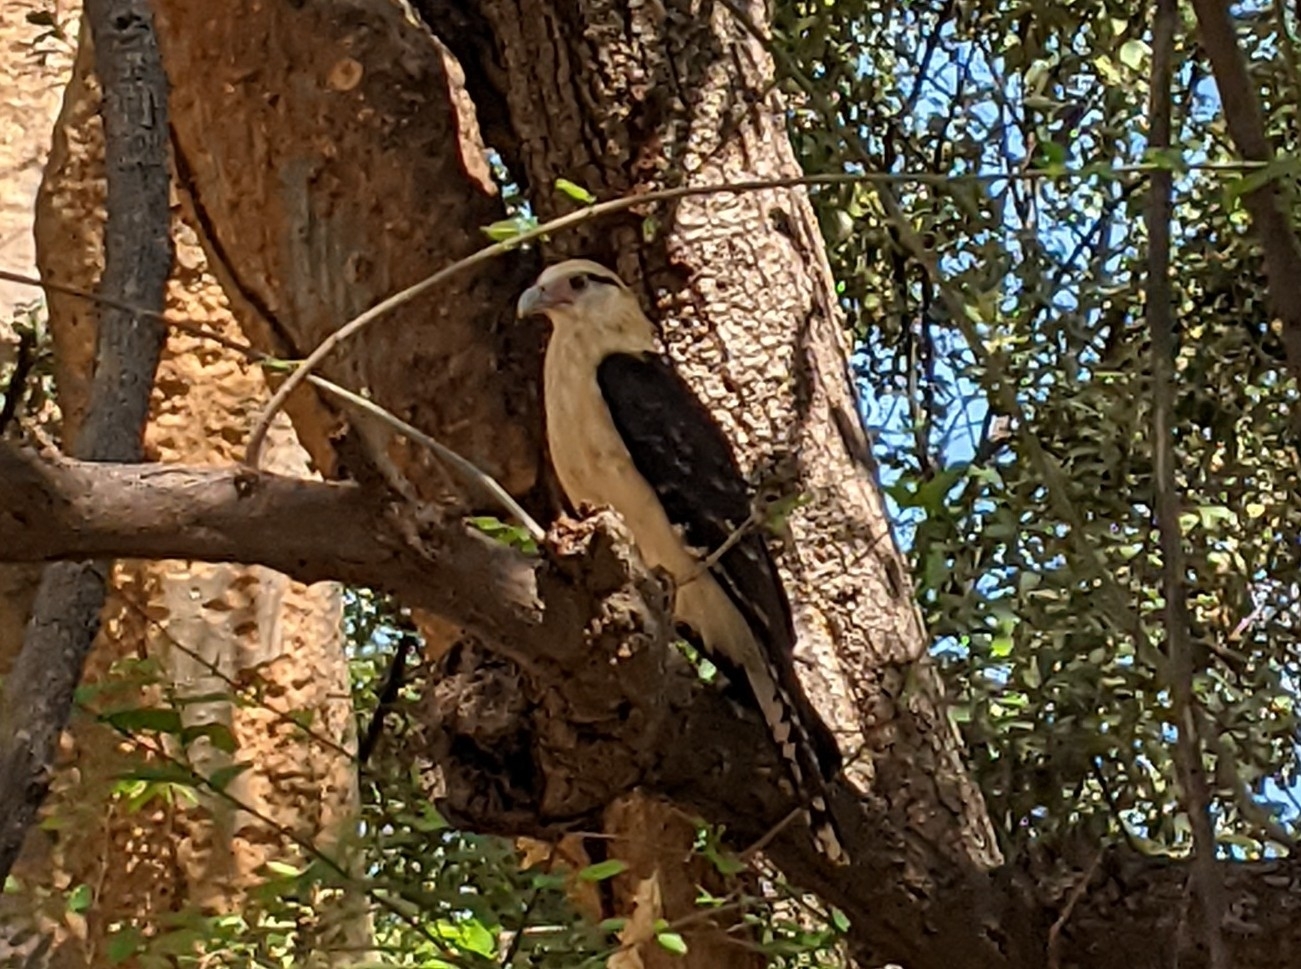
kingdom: Animalia
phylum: Chordata
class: Aves
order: Falconiformes
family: Falconidae
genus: Daptrius
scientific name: Daptrius
